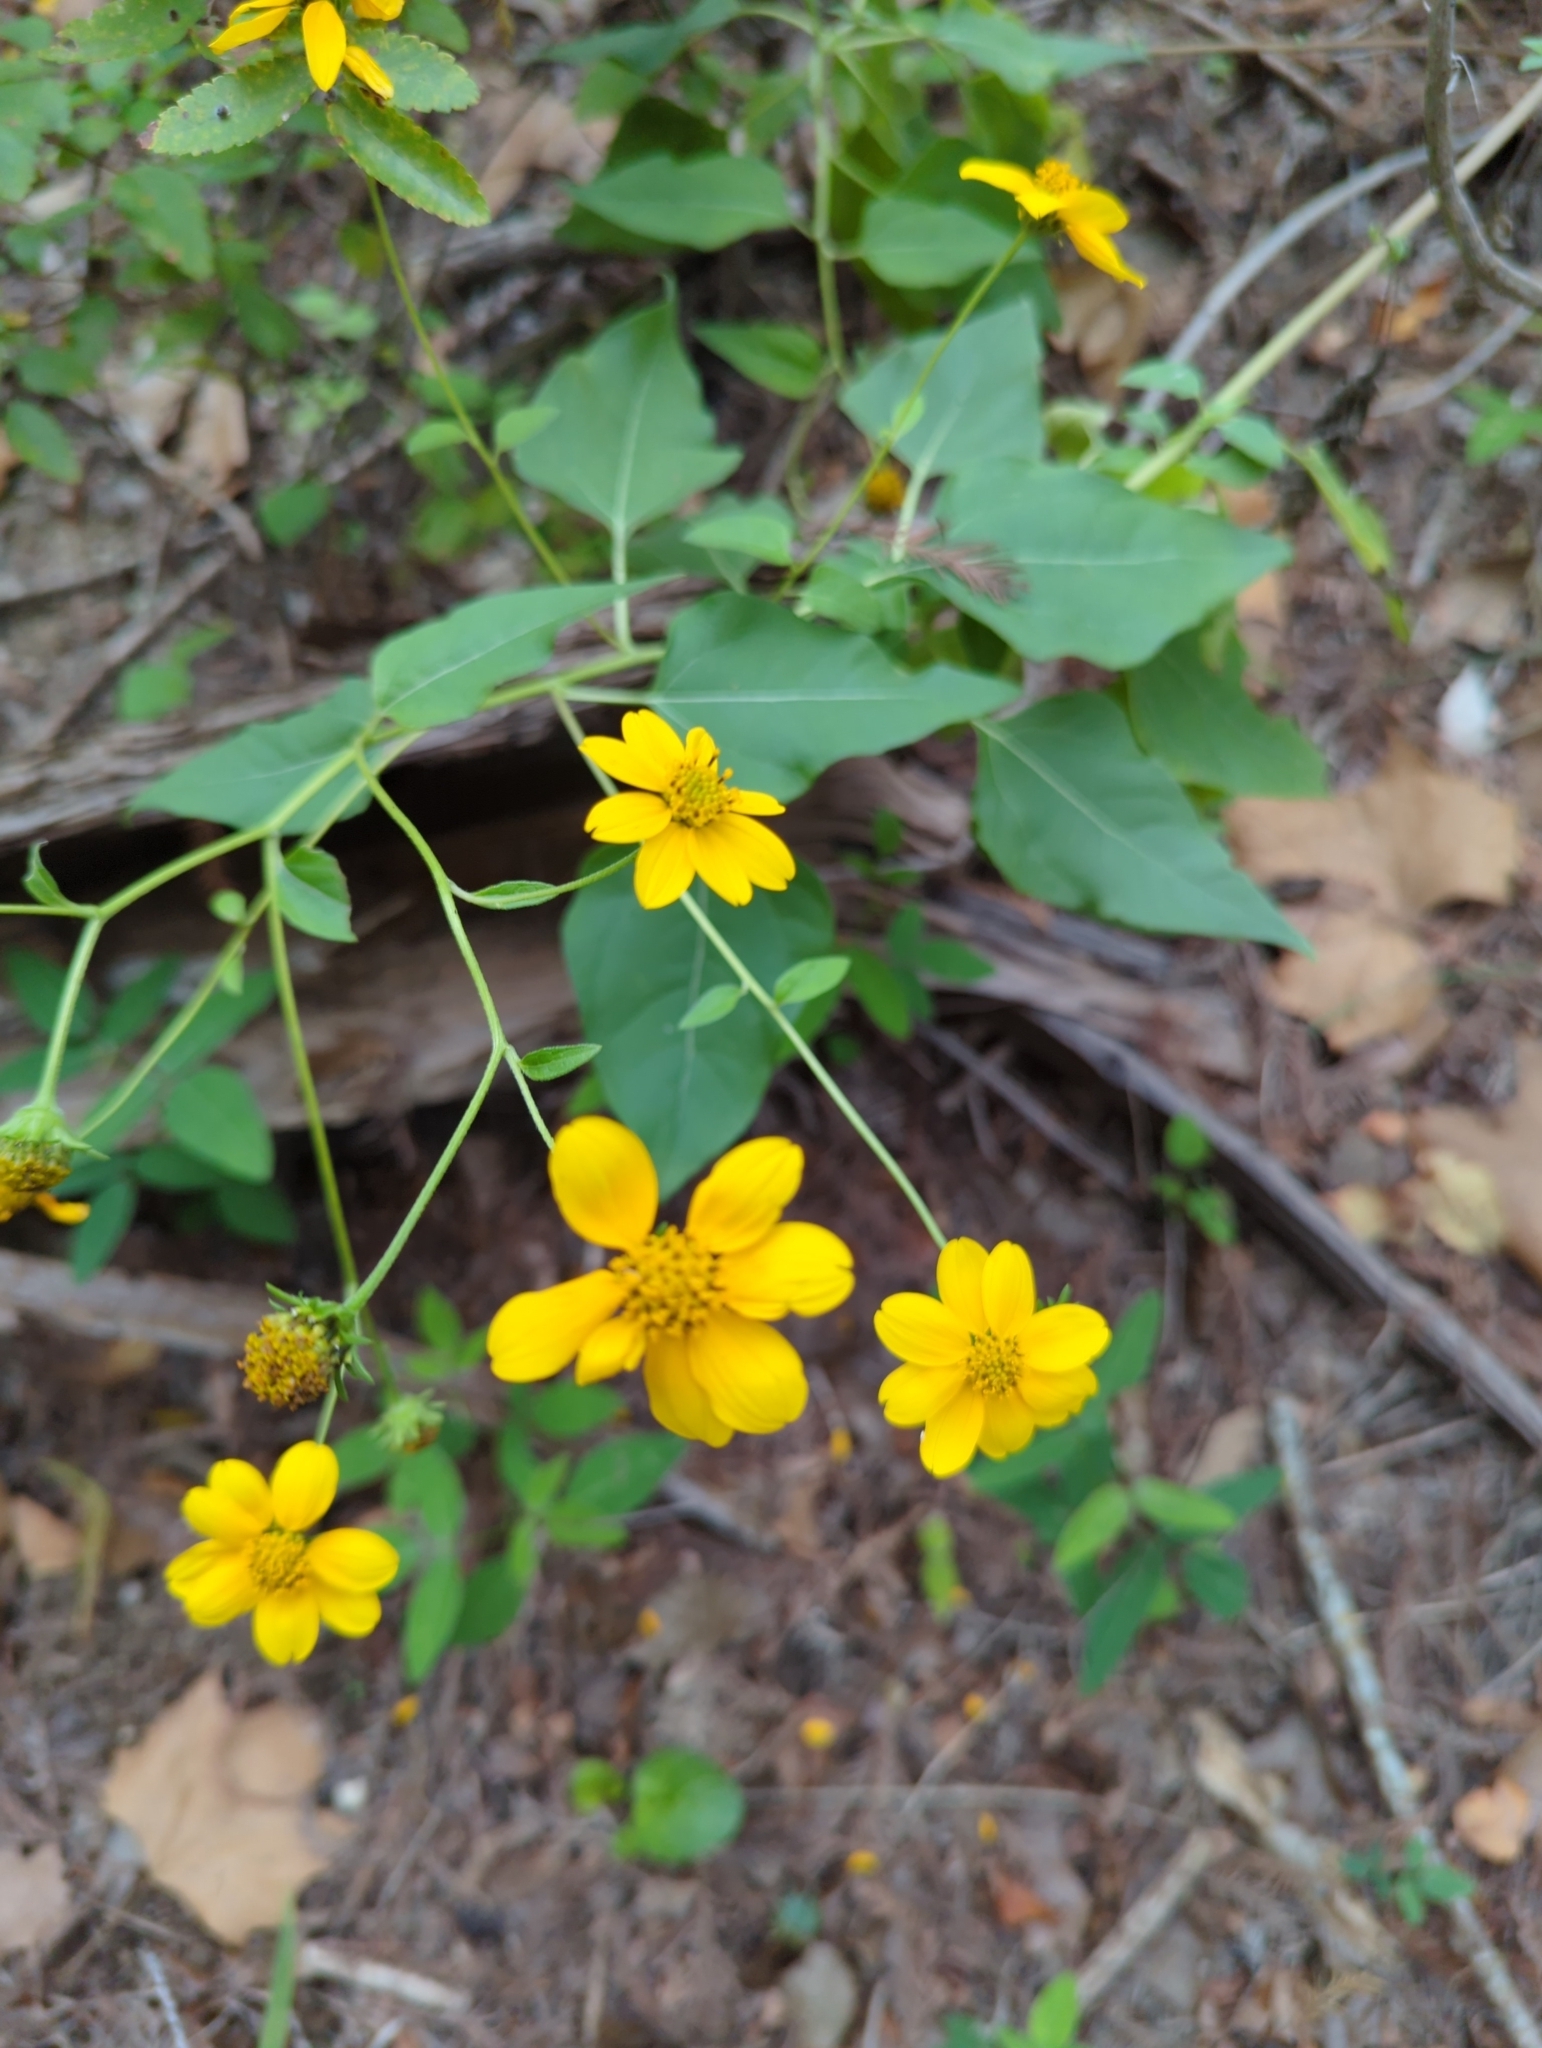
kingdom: Plantae
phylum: Tracheophyta
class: Magnoliopsida
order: Asterales
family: Asteraceae
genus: Viguiera
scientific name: Viguiera dentata
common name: Toothleaf
